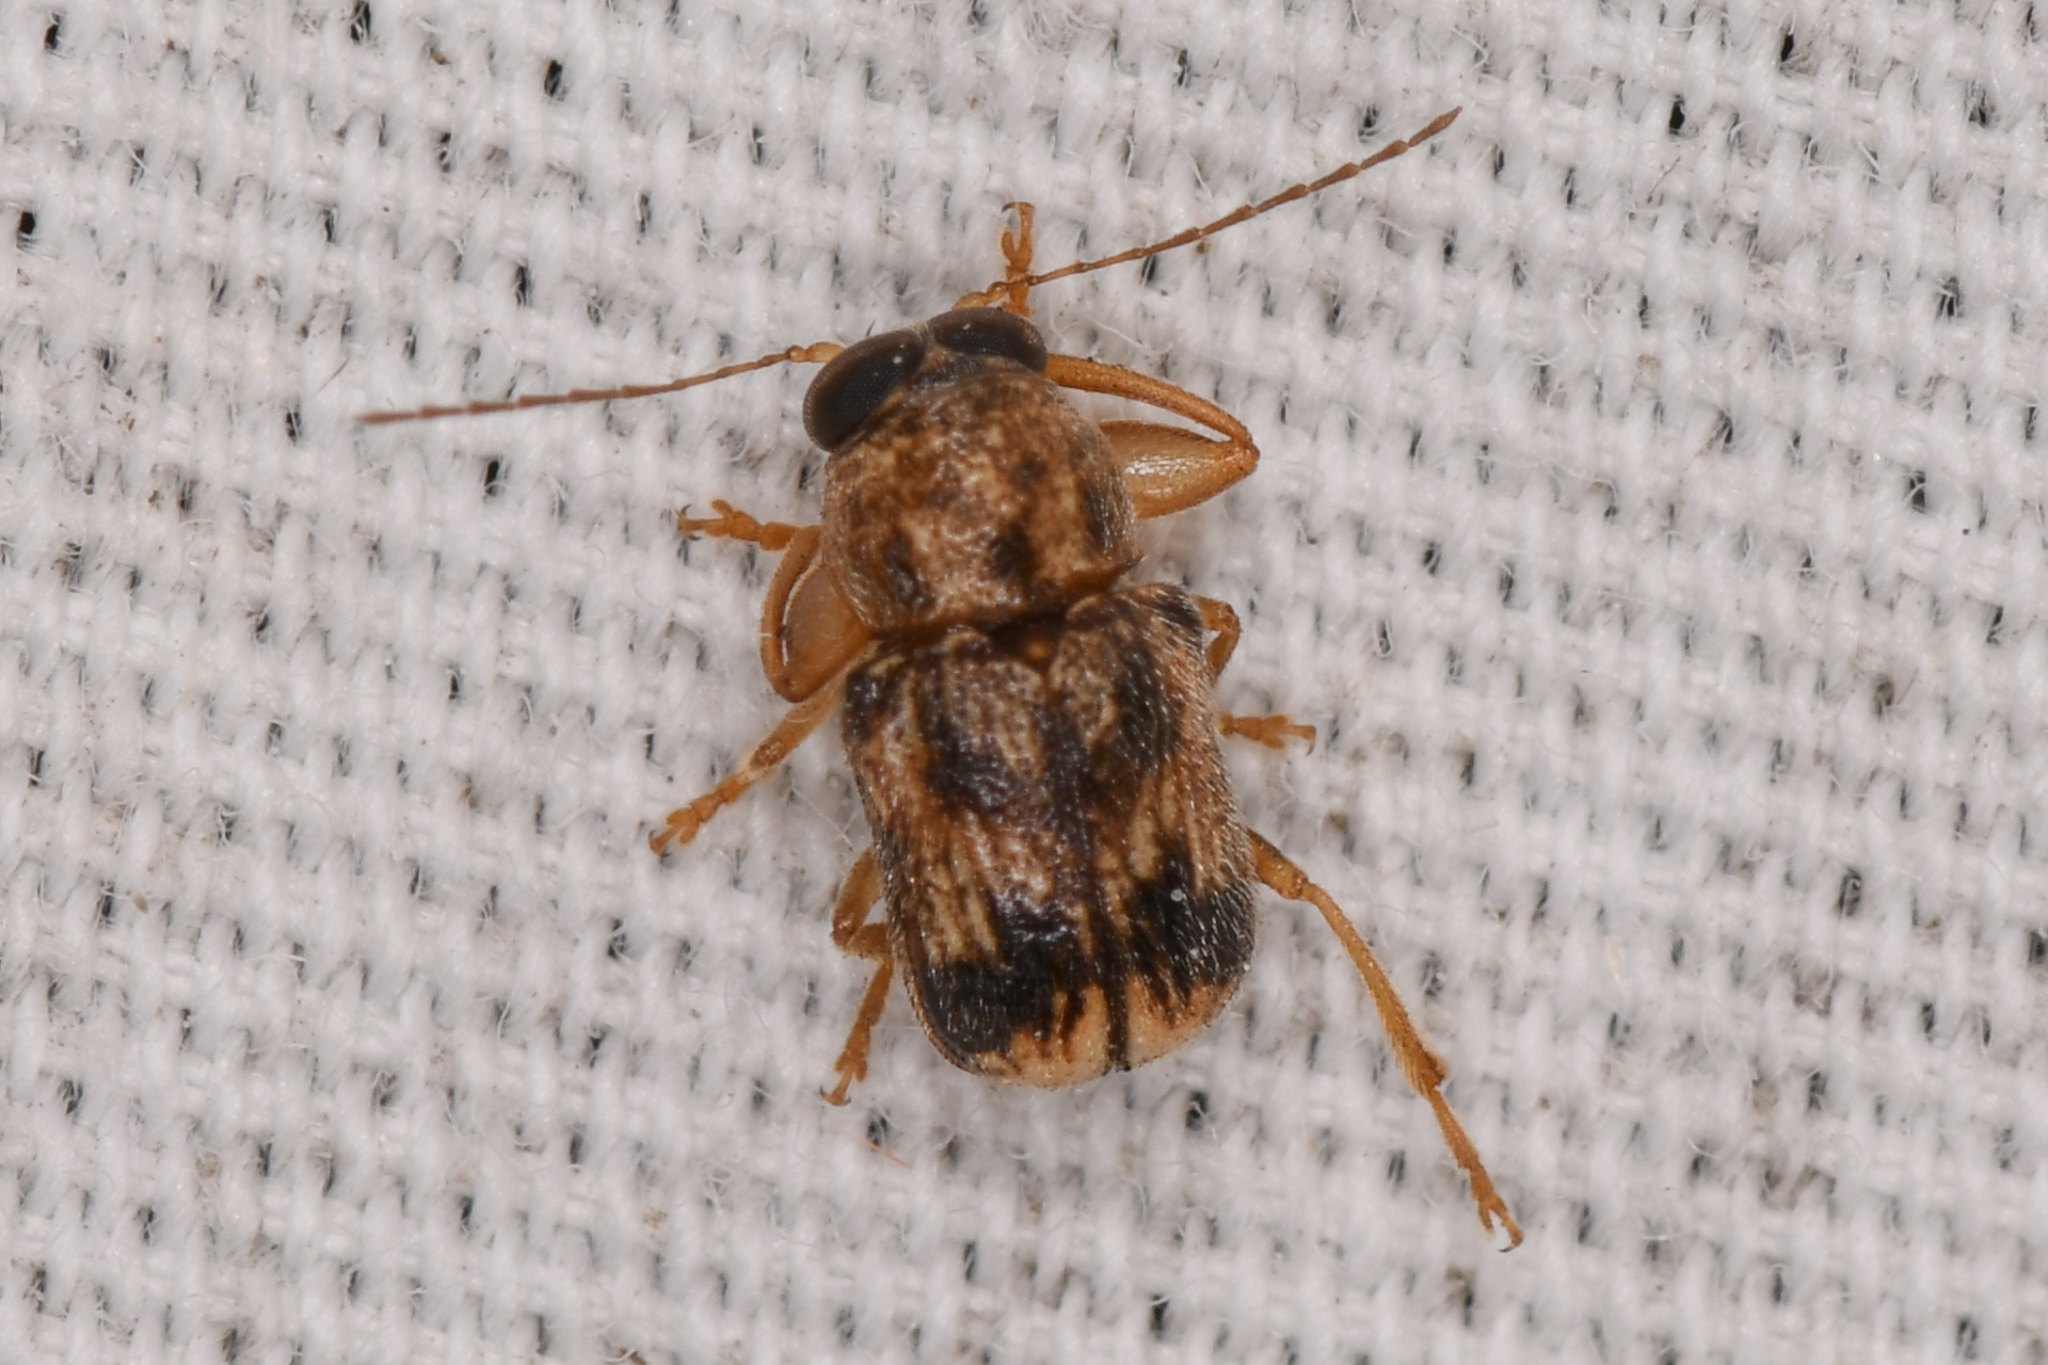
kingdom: Animalia
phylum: Arthropoda
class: Insecta
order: Coleoptera
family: Chrysomelidae
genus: Pachybrachis
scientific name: Pachybrachis
